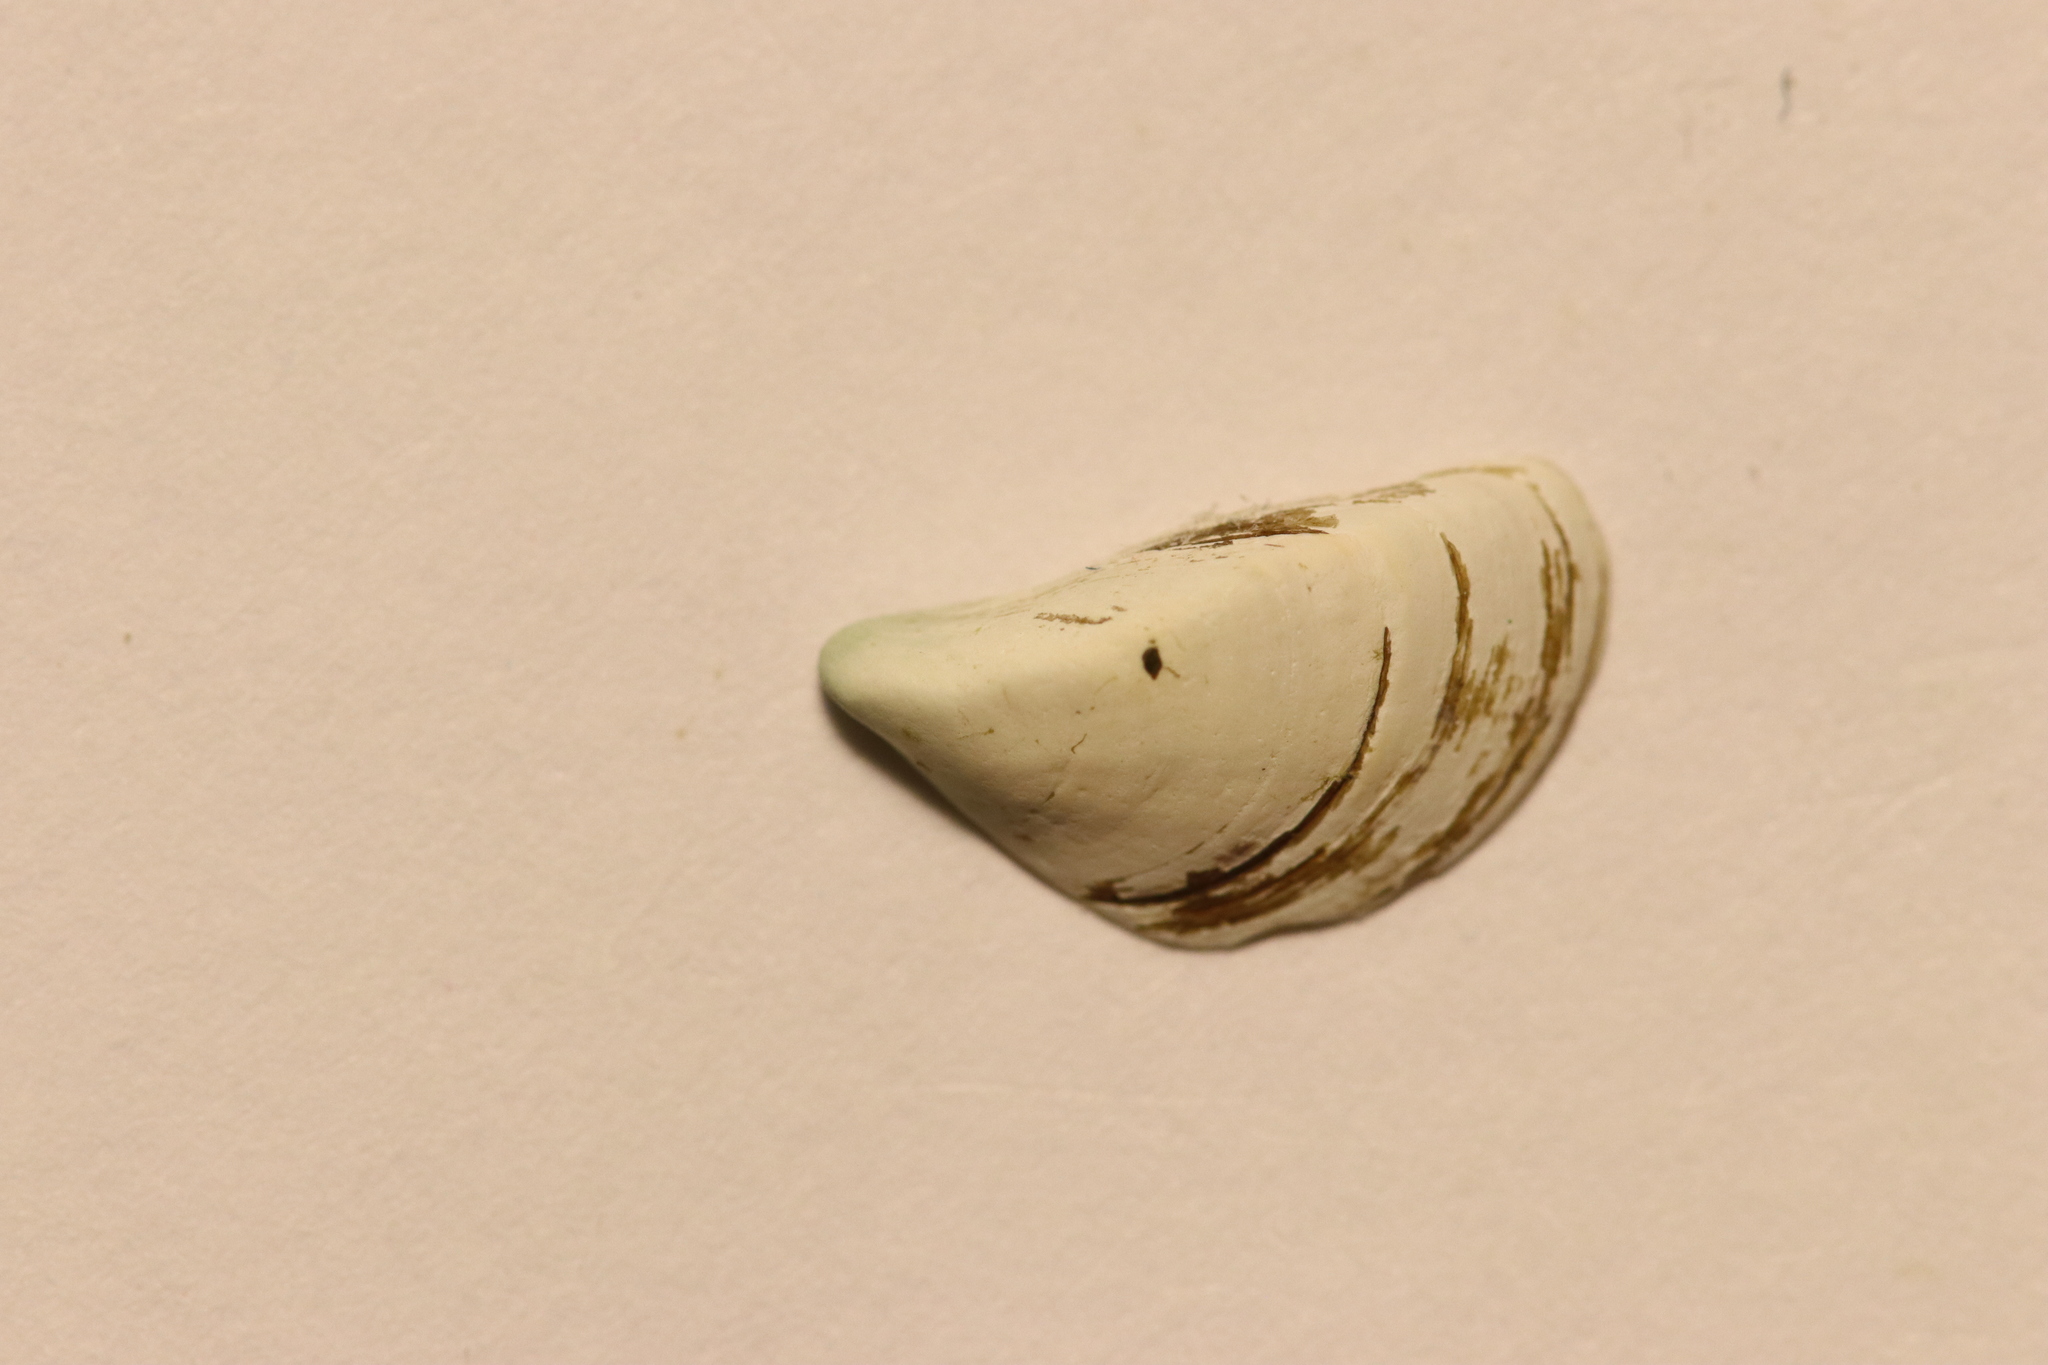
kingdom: Animalia
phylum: Mollusca
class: Bivalvia
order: Myida
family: Dreissenidae
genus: Dreissena
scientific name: Dreissena polymorpha
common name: Zebra mussel
